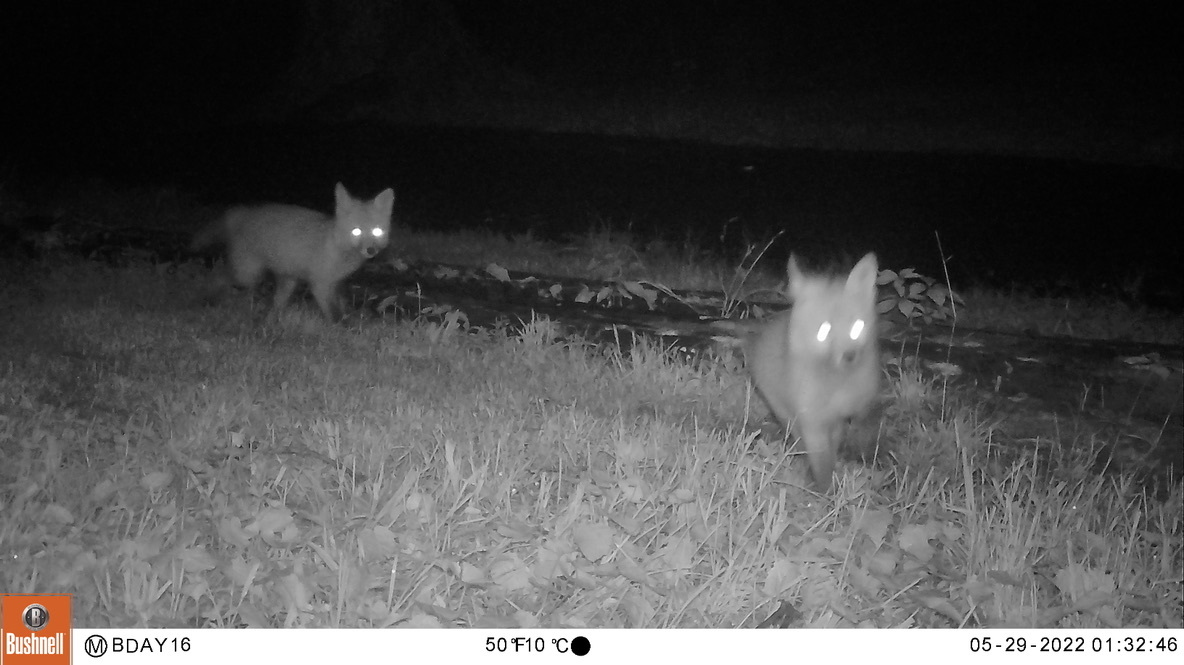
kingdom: Animalia
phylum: Chordata
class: Mammalia
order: Carnivora
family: Canidae
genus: Vulpes
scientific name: Vulpes vulpes
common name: Red fox
